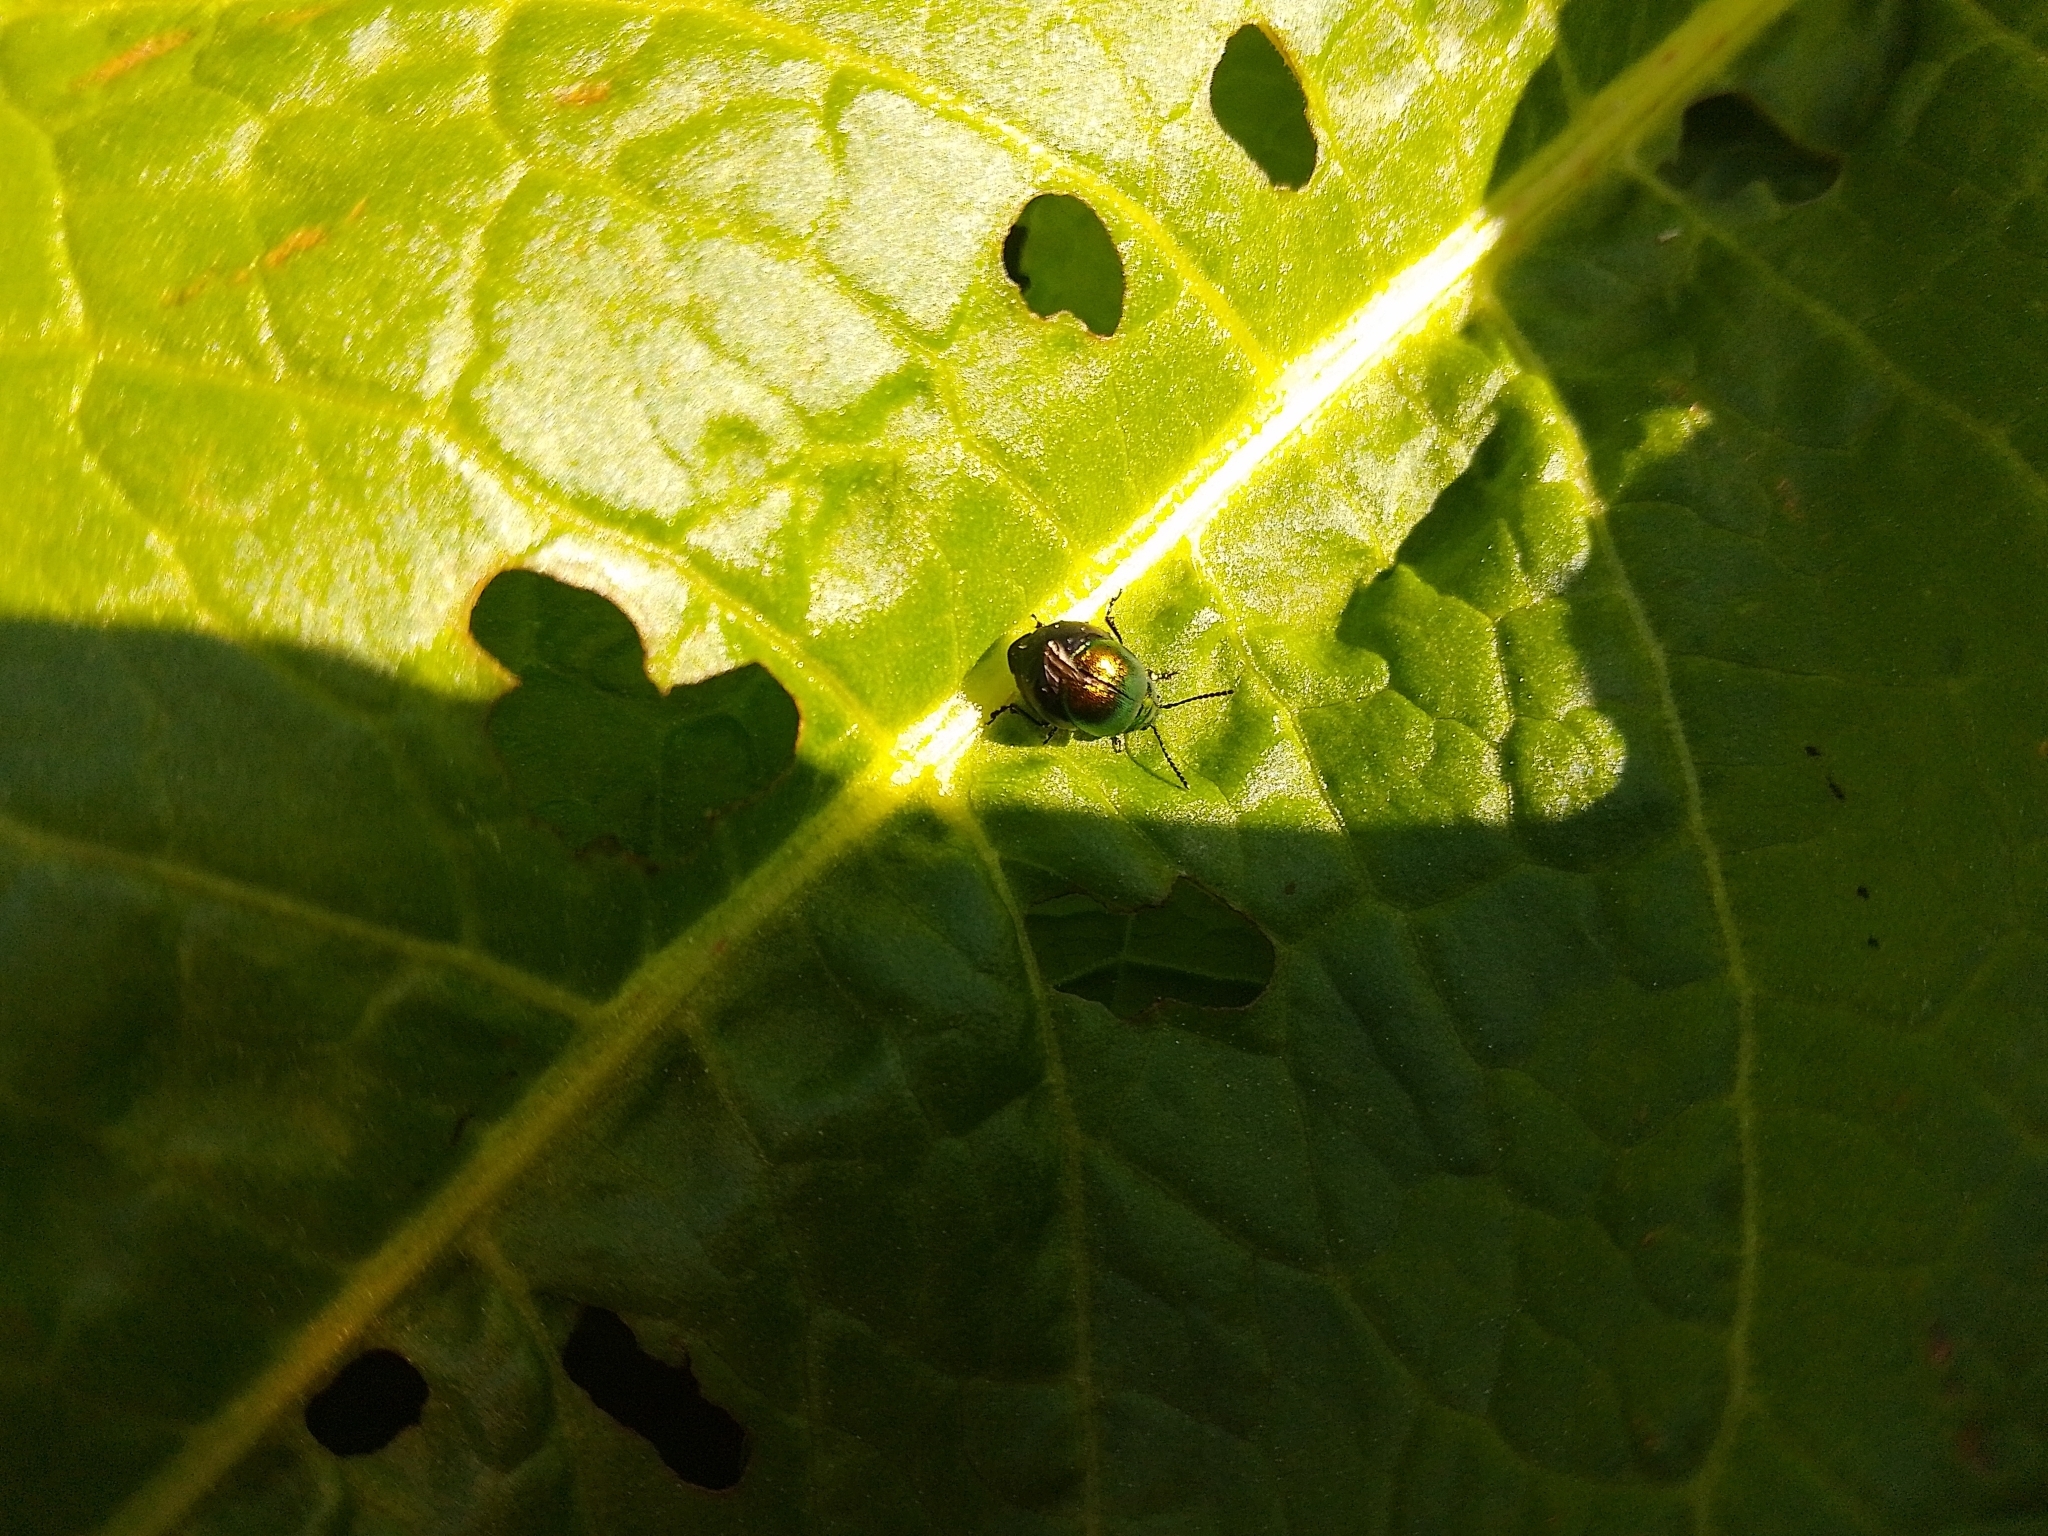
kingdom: Animalia
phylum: Arthropoda
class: Insecta
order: Coleoptera
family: Chrysomelidae
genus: Gastrophysa
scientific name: Gastrophysa viridula
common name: Green dock beetle
